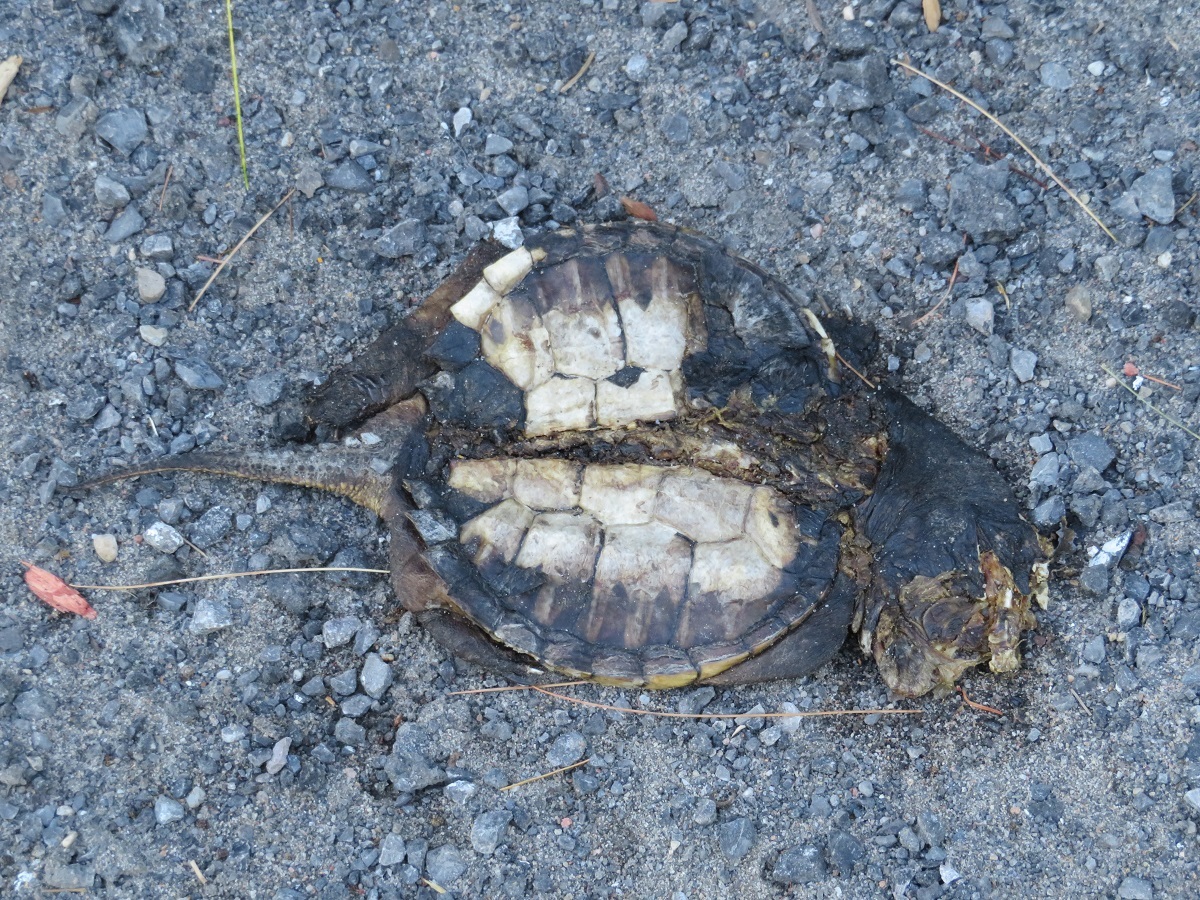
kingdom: Animalia
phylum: Chordata
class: Testudines
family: Chelydridae
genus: Chelydra
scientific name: Chelydra serpentina
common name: Common snapping turtle
